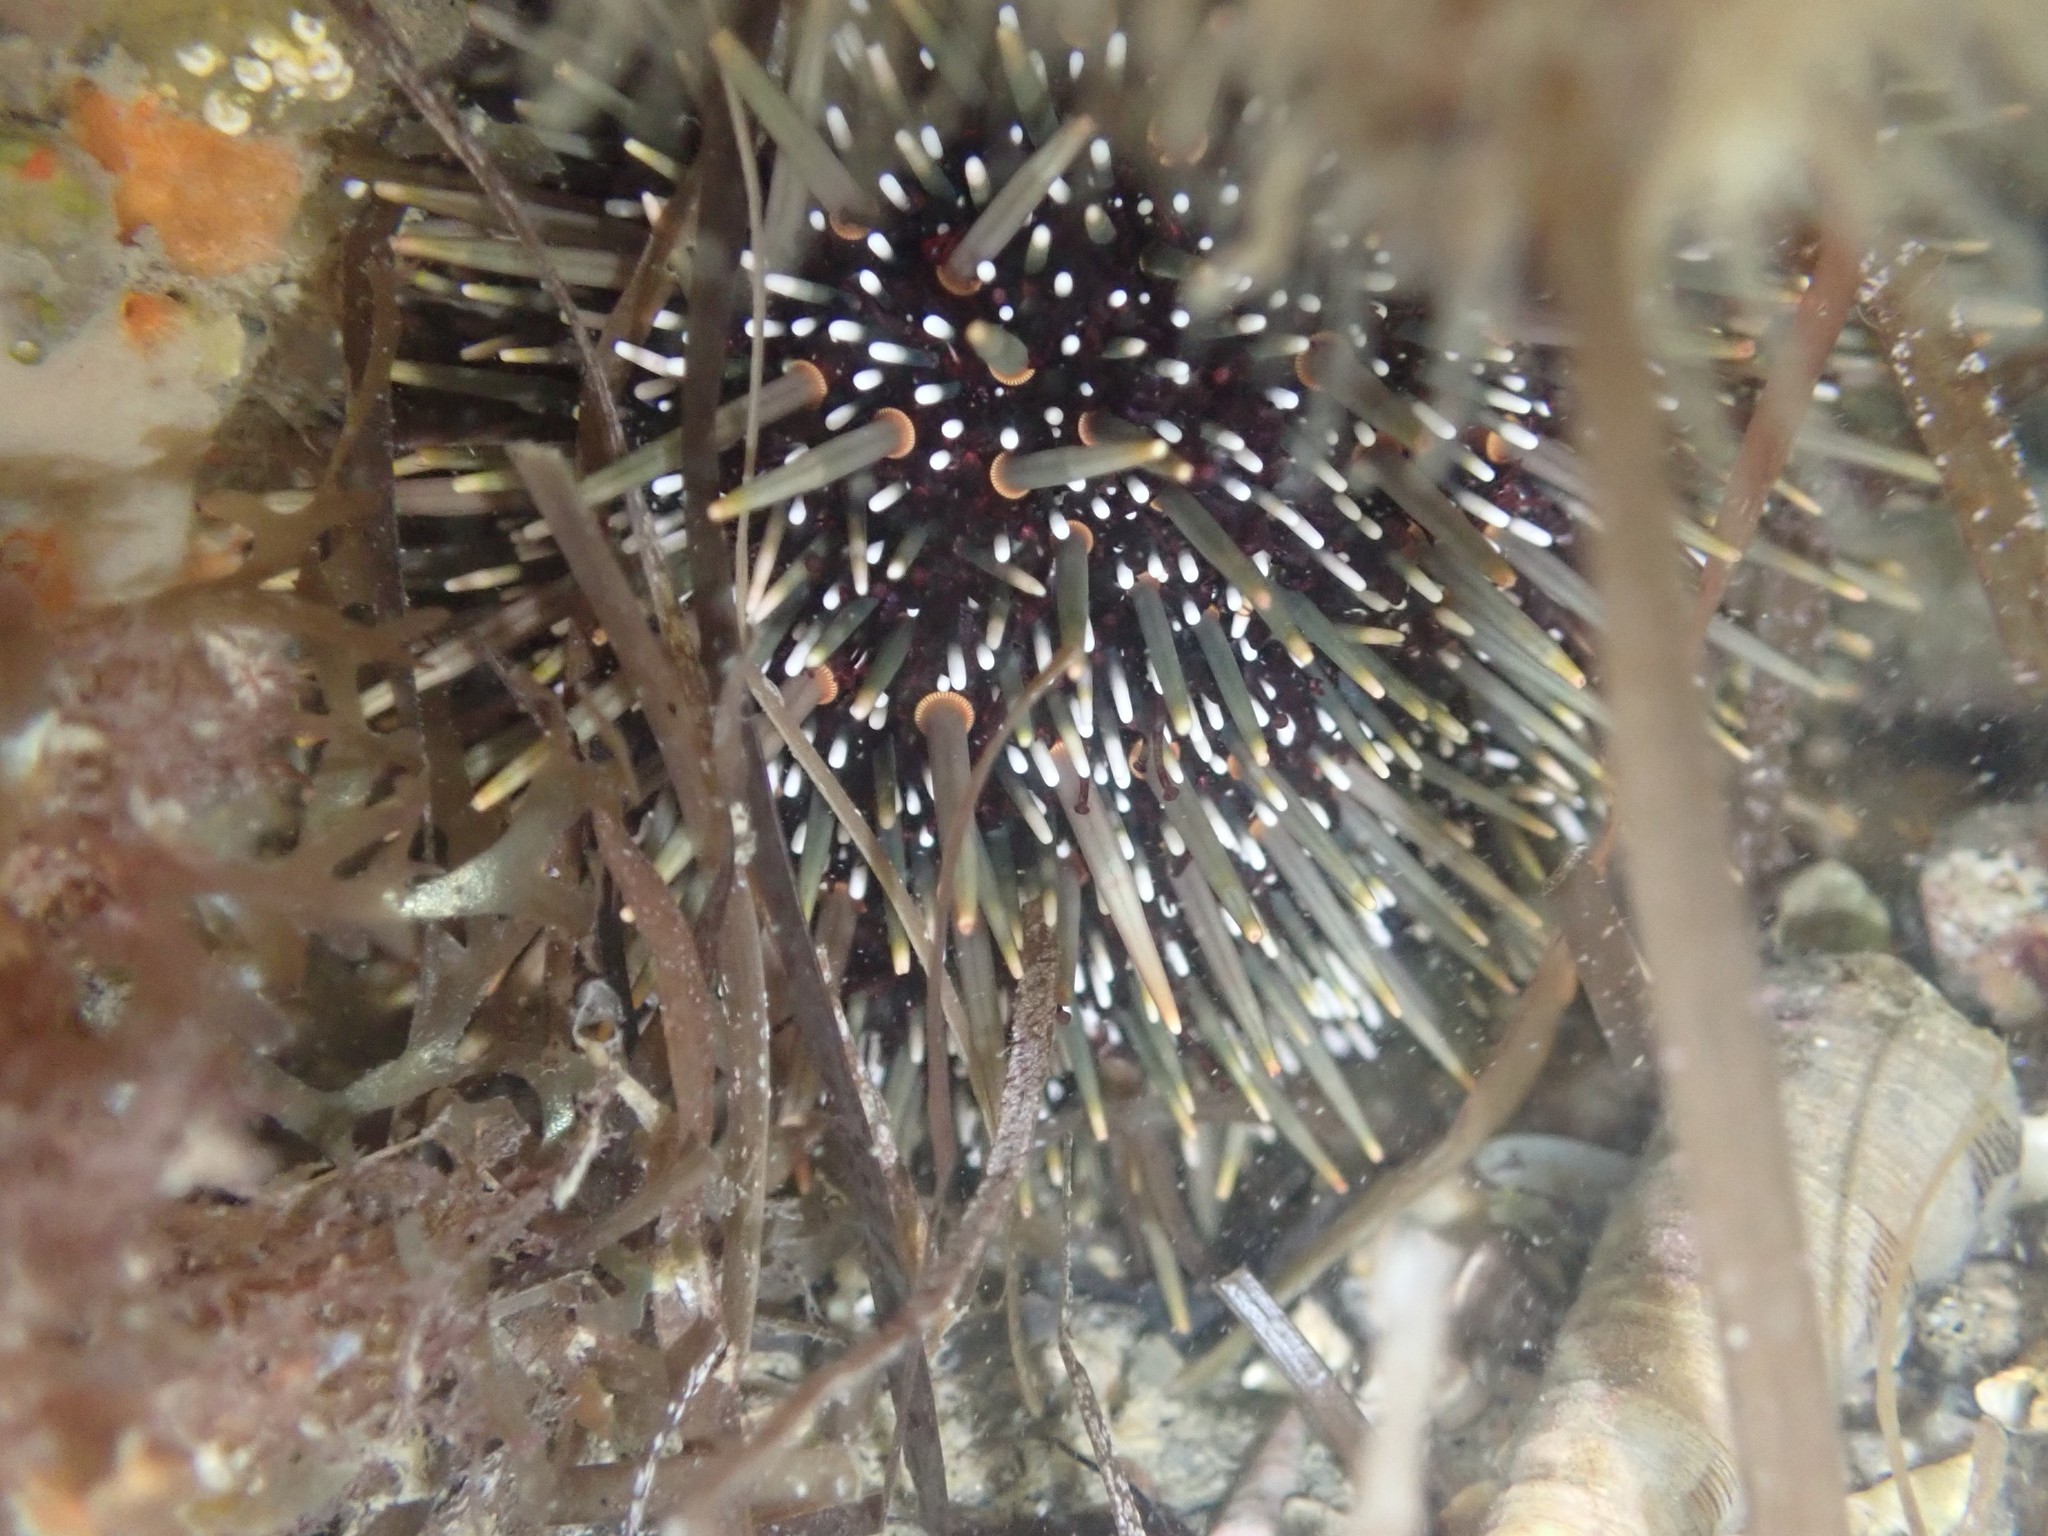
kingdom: Animalia
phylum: Echinodermata
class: Echinoidea
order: Camarodonta
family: Echinometridae
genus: Evechinus
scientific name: Evechinus chloroticus
